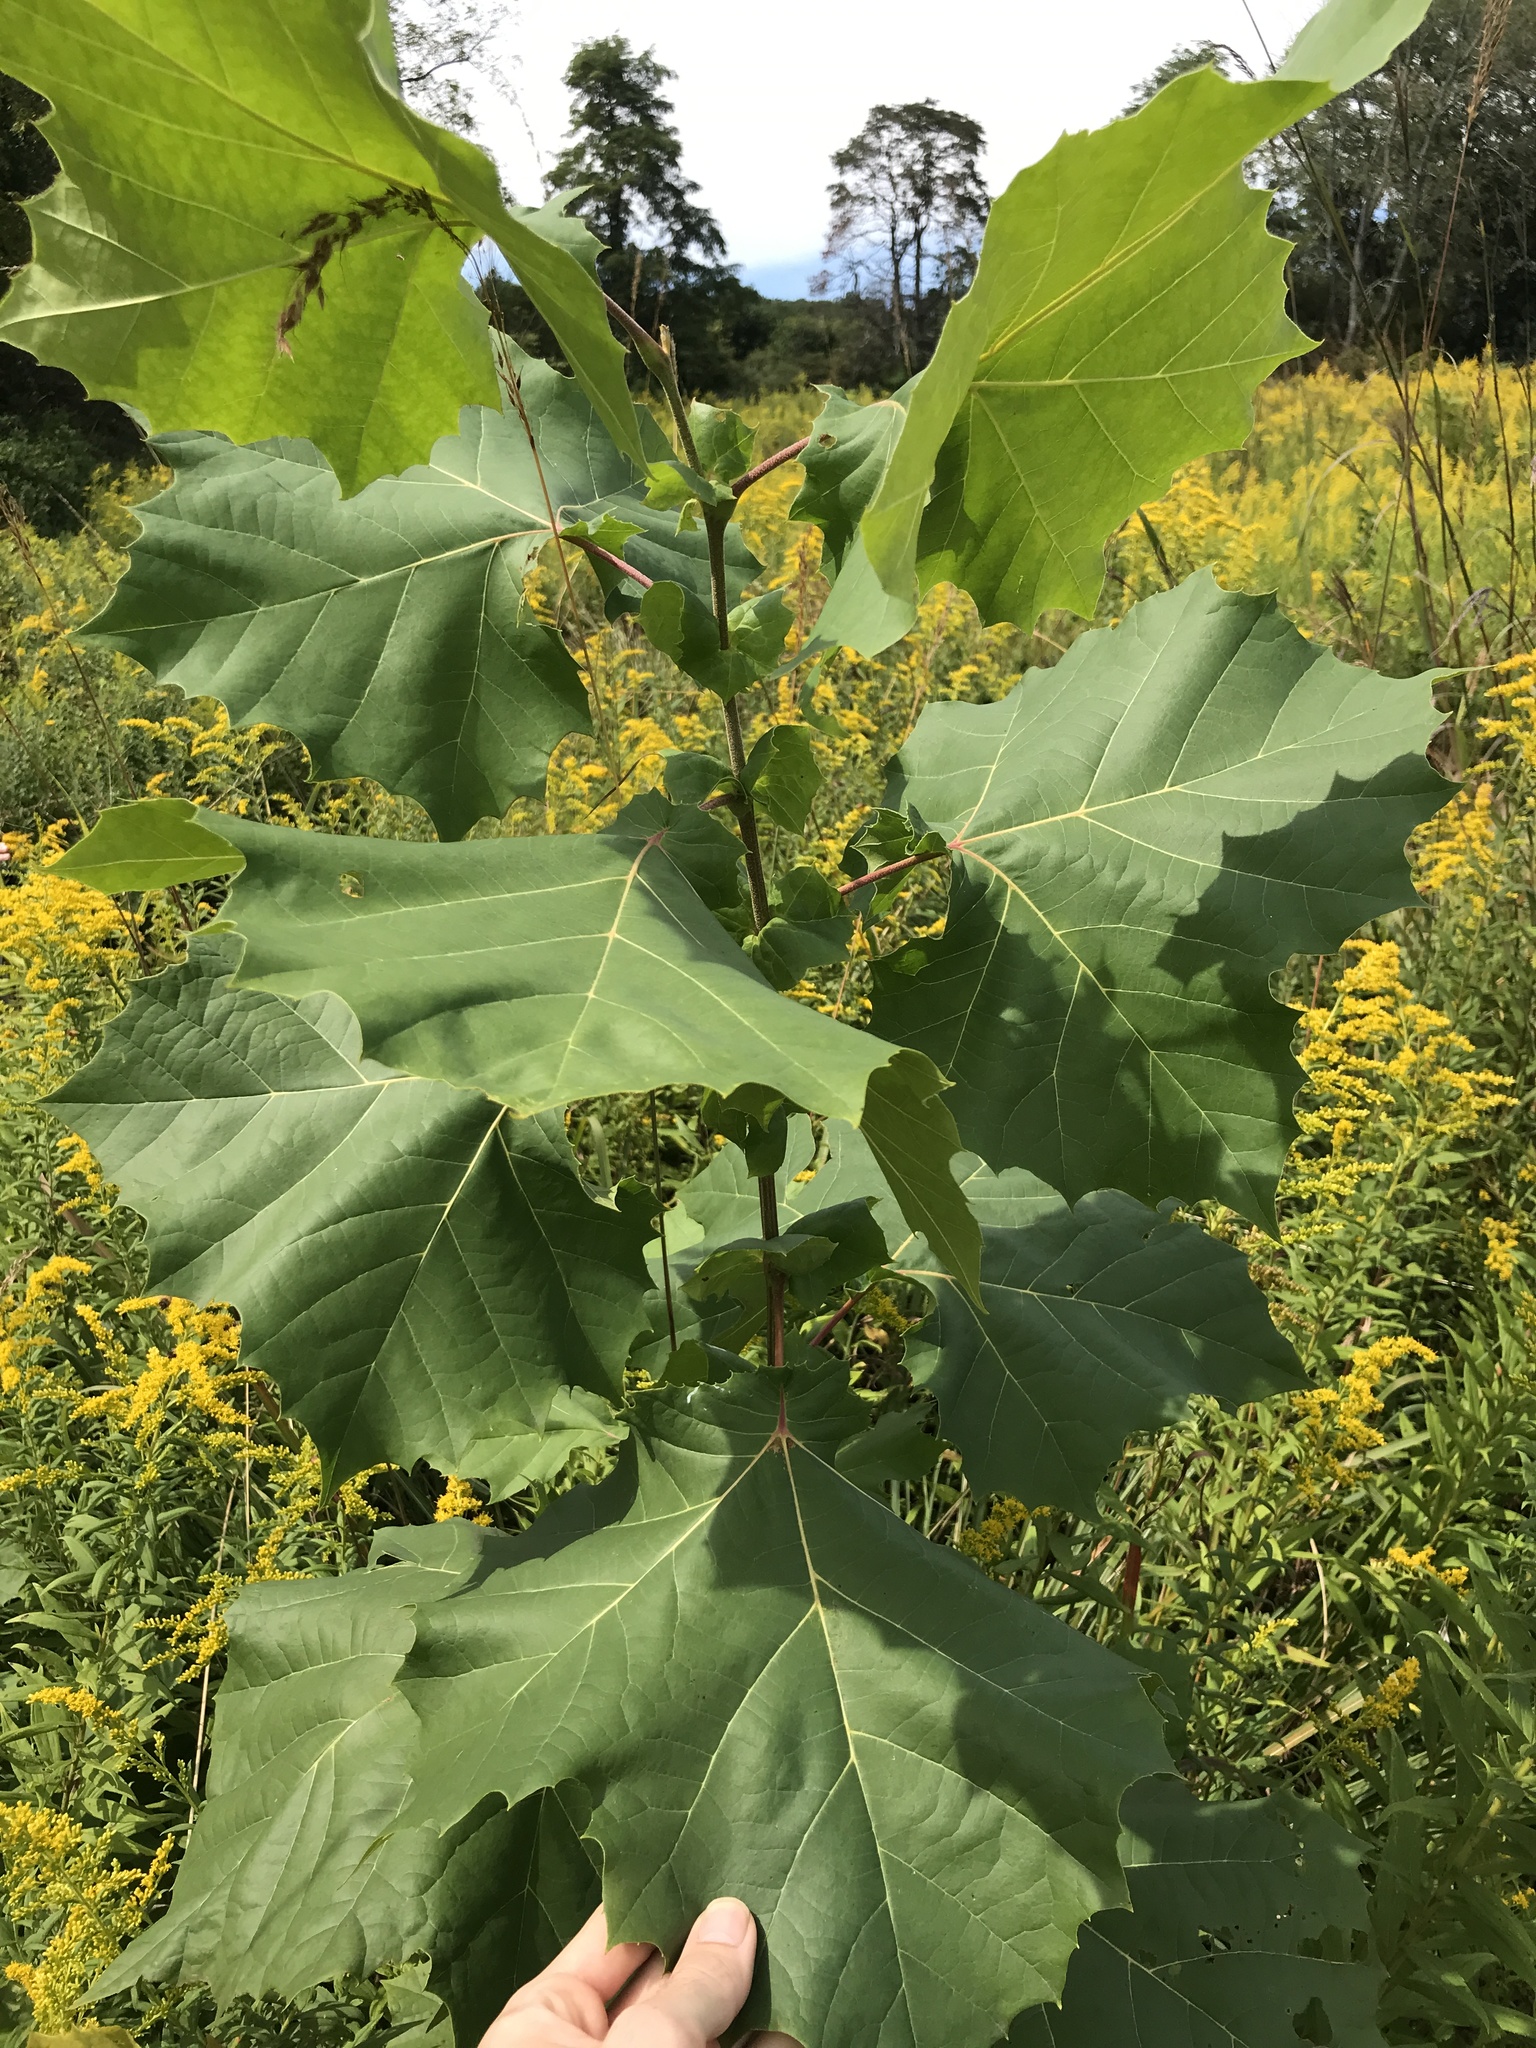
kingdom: Plantae
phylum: Tracheophyta
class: Magnoliopsida
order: Proteales
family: Platanaceae
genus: Platanus
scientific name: Platanus occidentalis
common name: American sycamore
